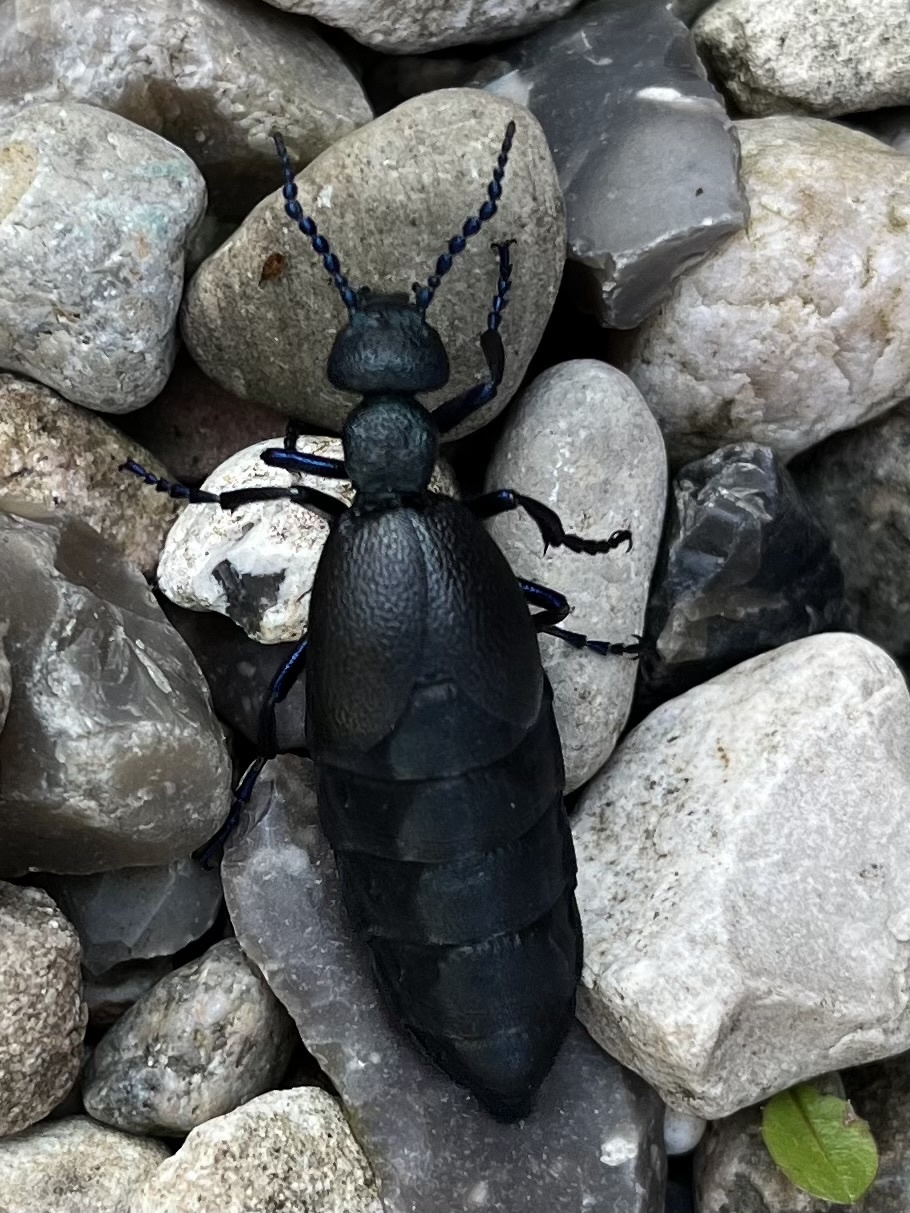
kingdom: Animalia
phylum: Arthropoda
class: Insecta
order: Coleoptera
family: Meloidae
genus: Meloe
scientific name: Meloe proscarabaeus
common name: Black oil-beetle
